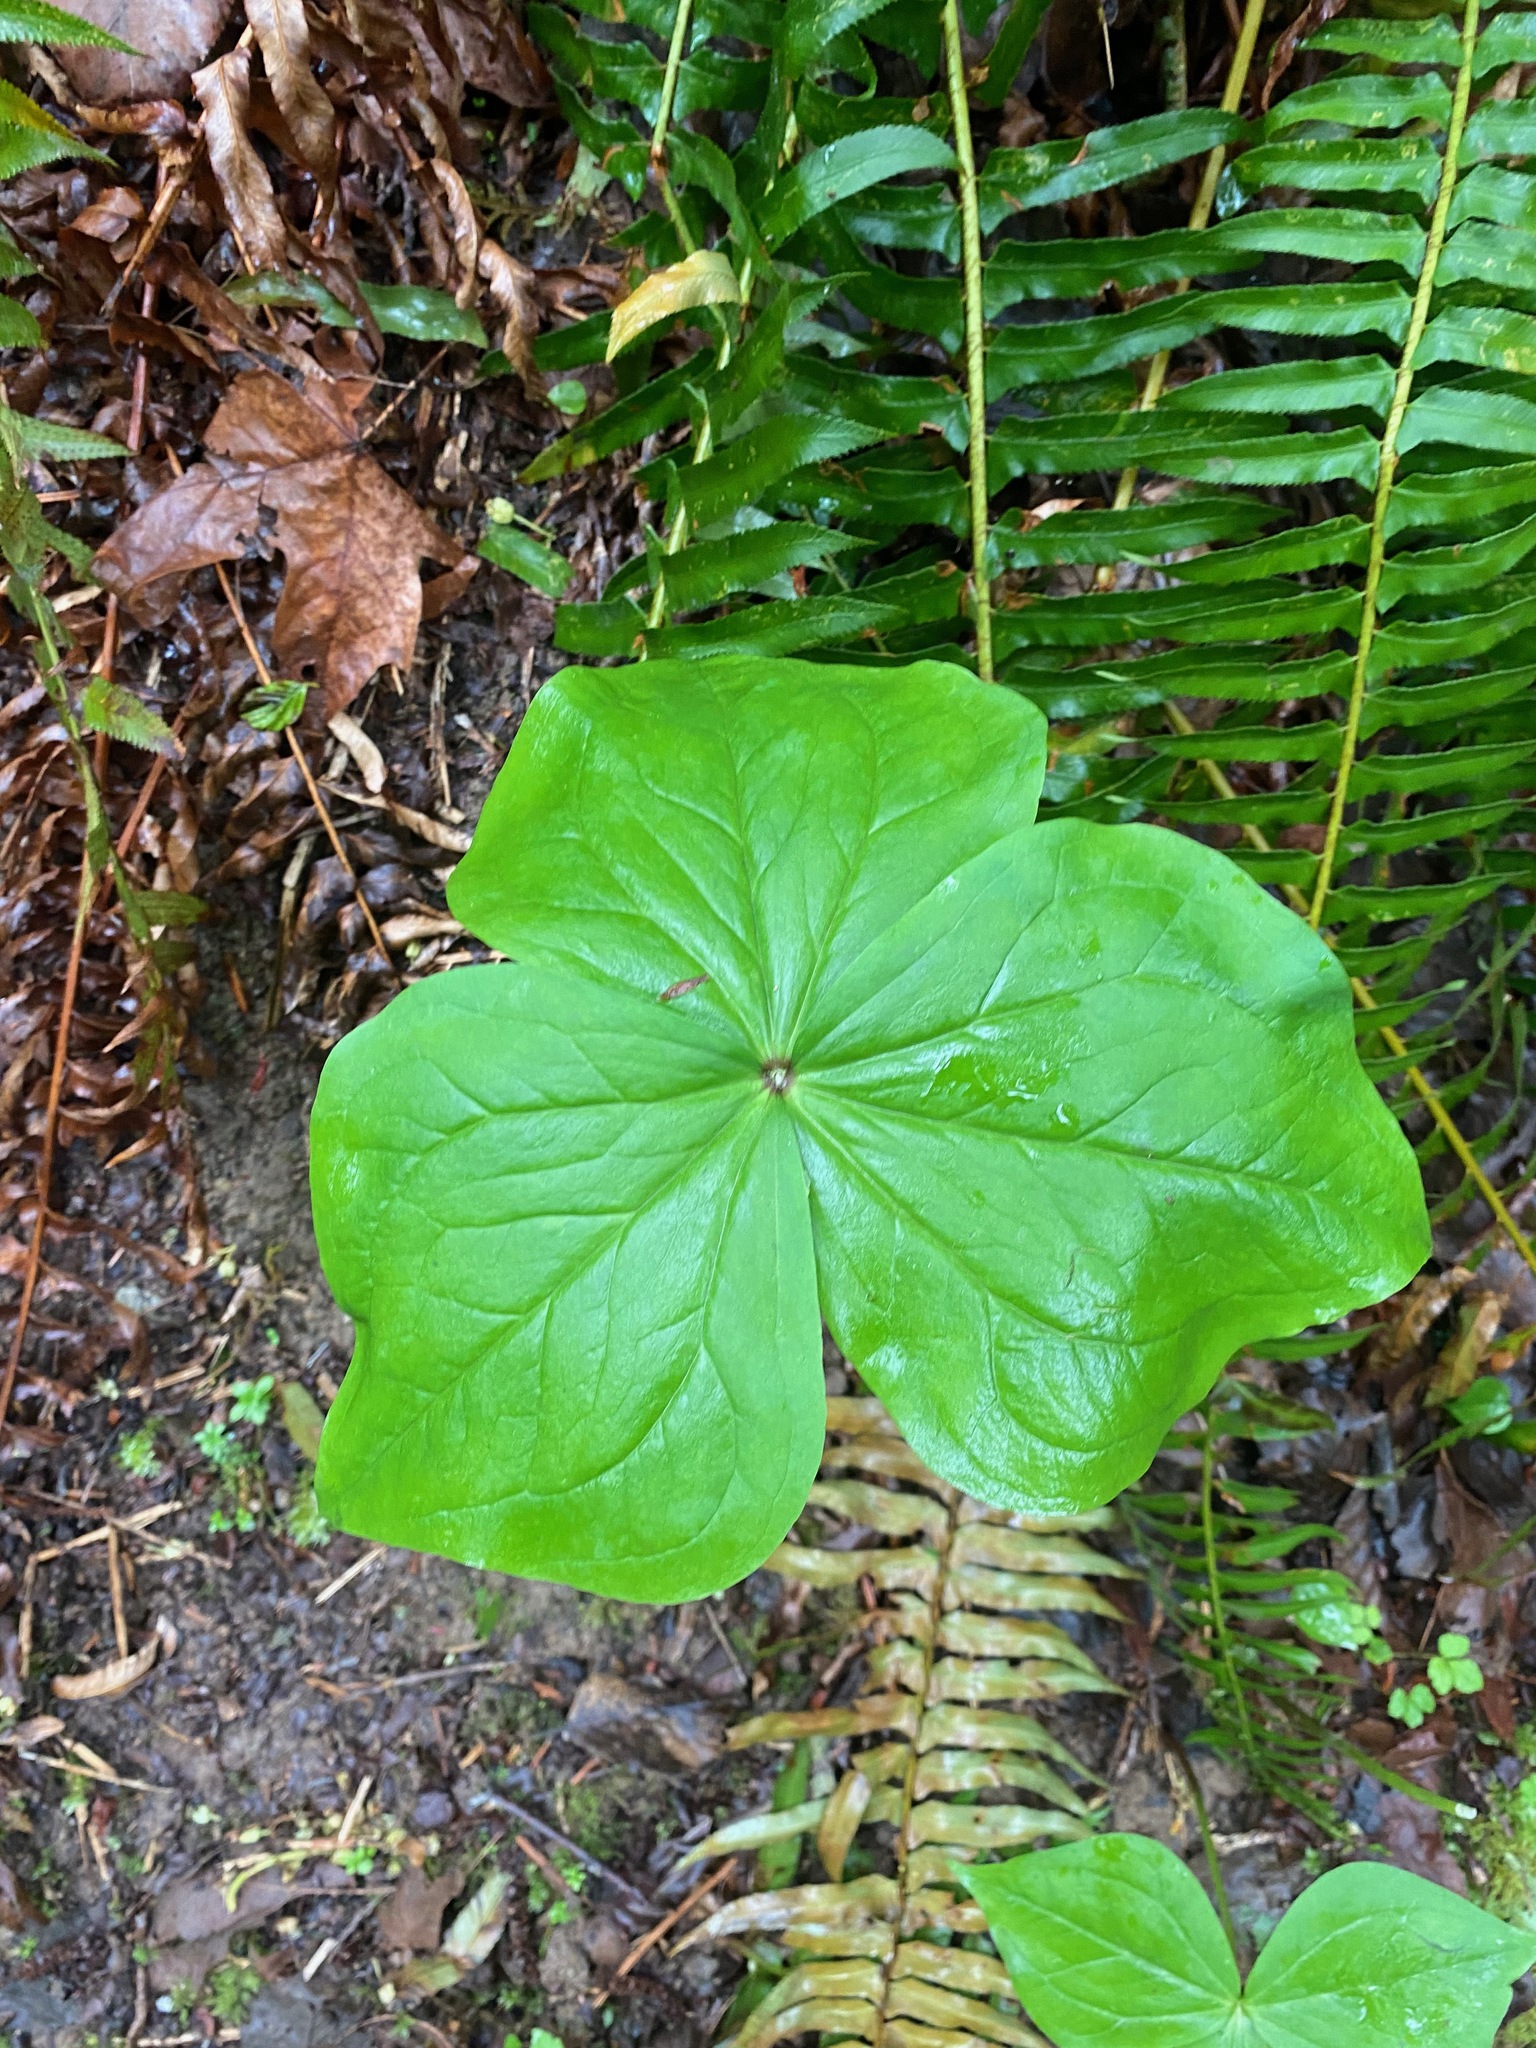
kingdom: Plantae
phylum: Tracheophyta
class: Liliopsida
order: Liliales
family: Melanthiaceae
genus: Trillium
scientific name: Trillium ovatum
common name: Pacific trillium
